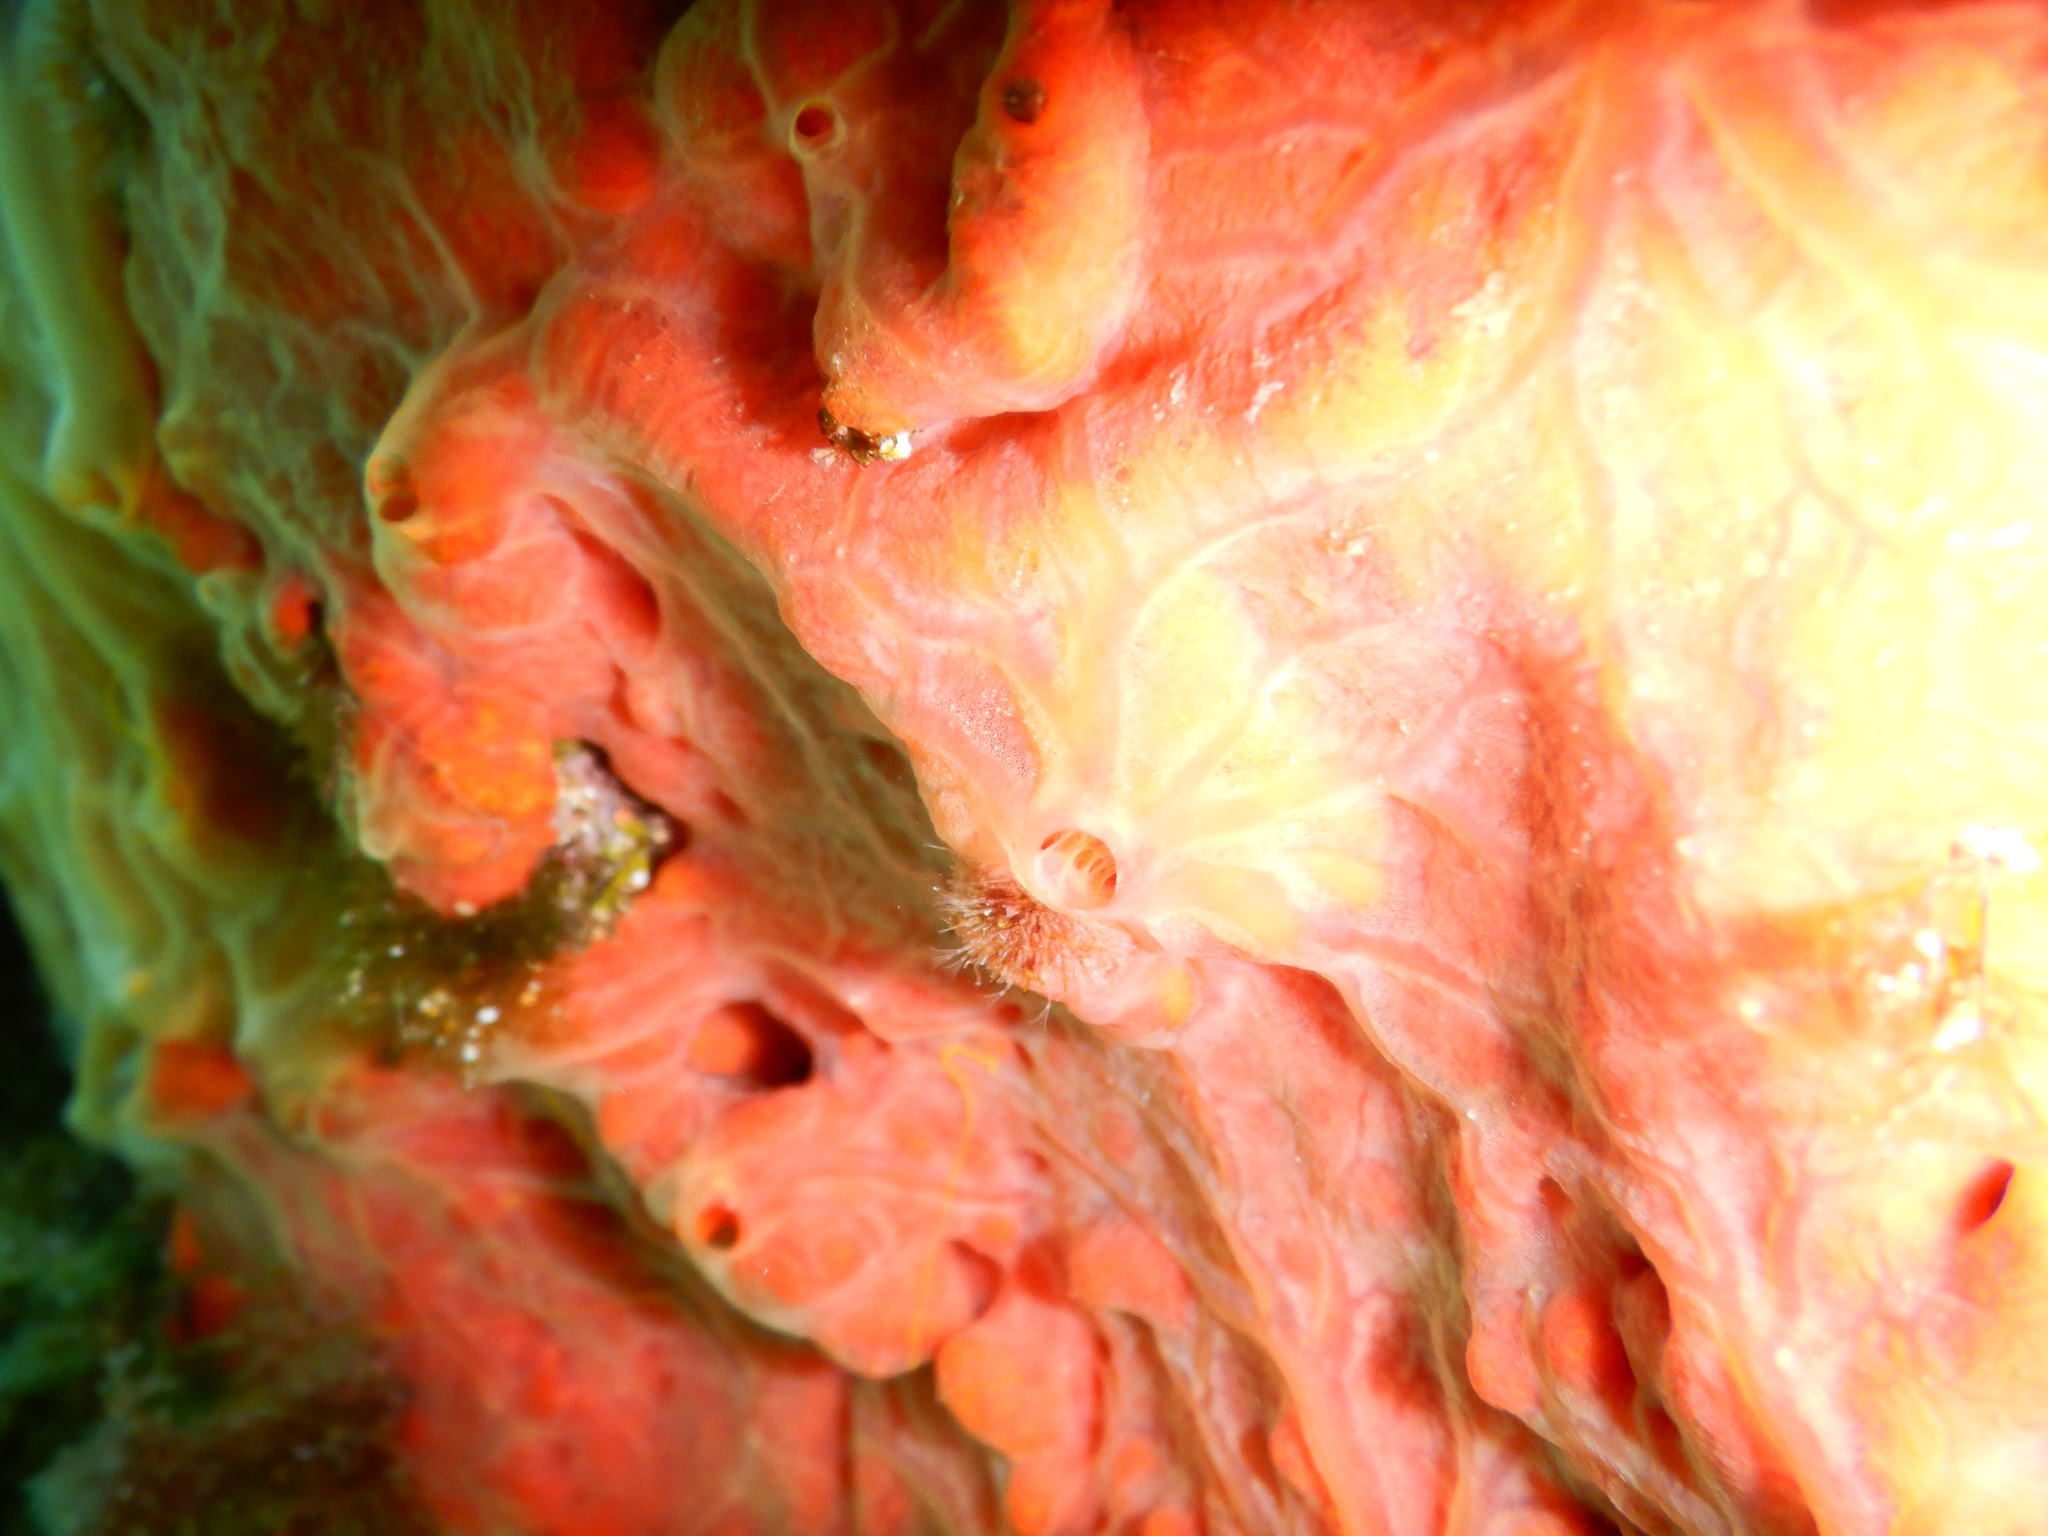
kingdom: Animalia
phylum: Porifera
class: Demospongiae
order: Poecilosclerida
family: Crambeidae
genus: Crambe
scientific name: Crambe crambe
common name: Orange-red encrusting sponge
